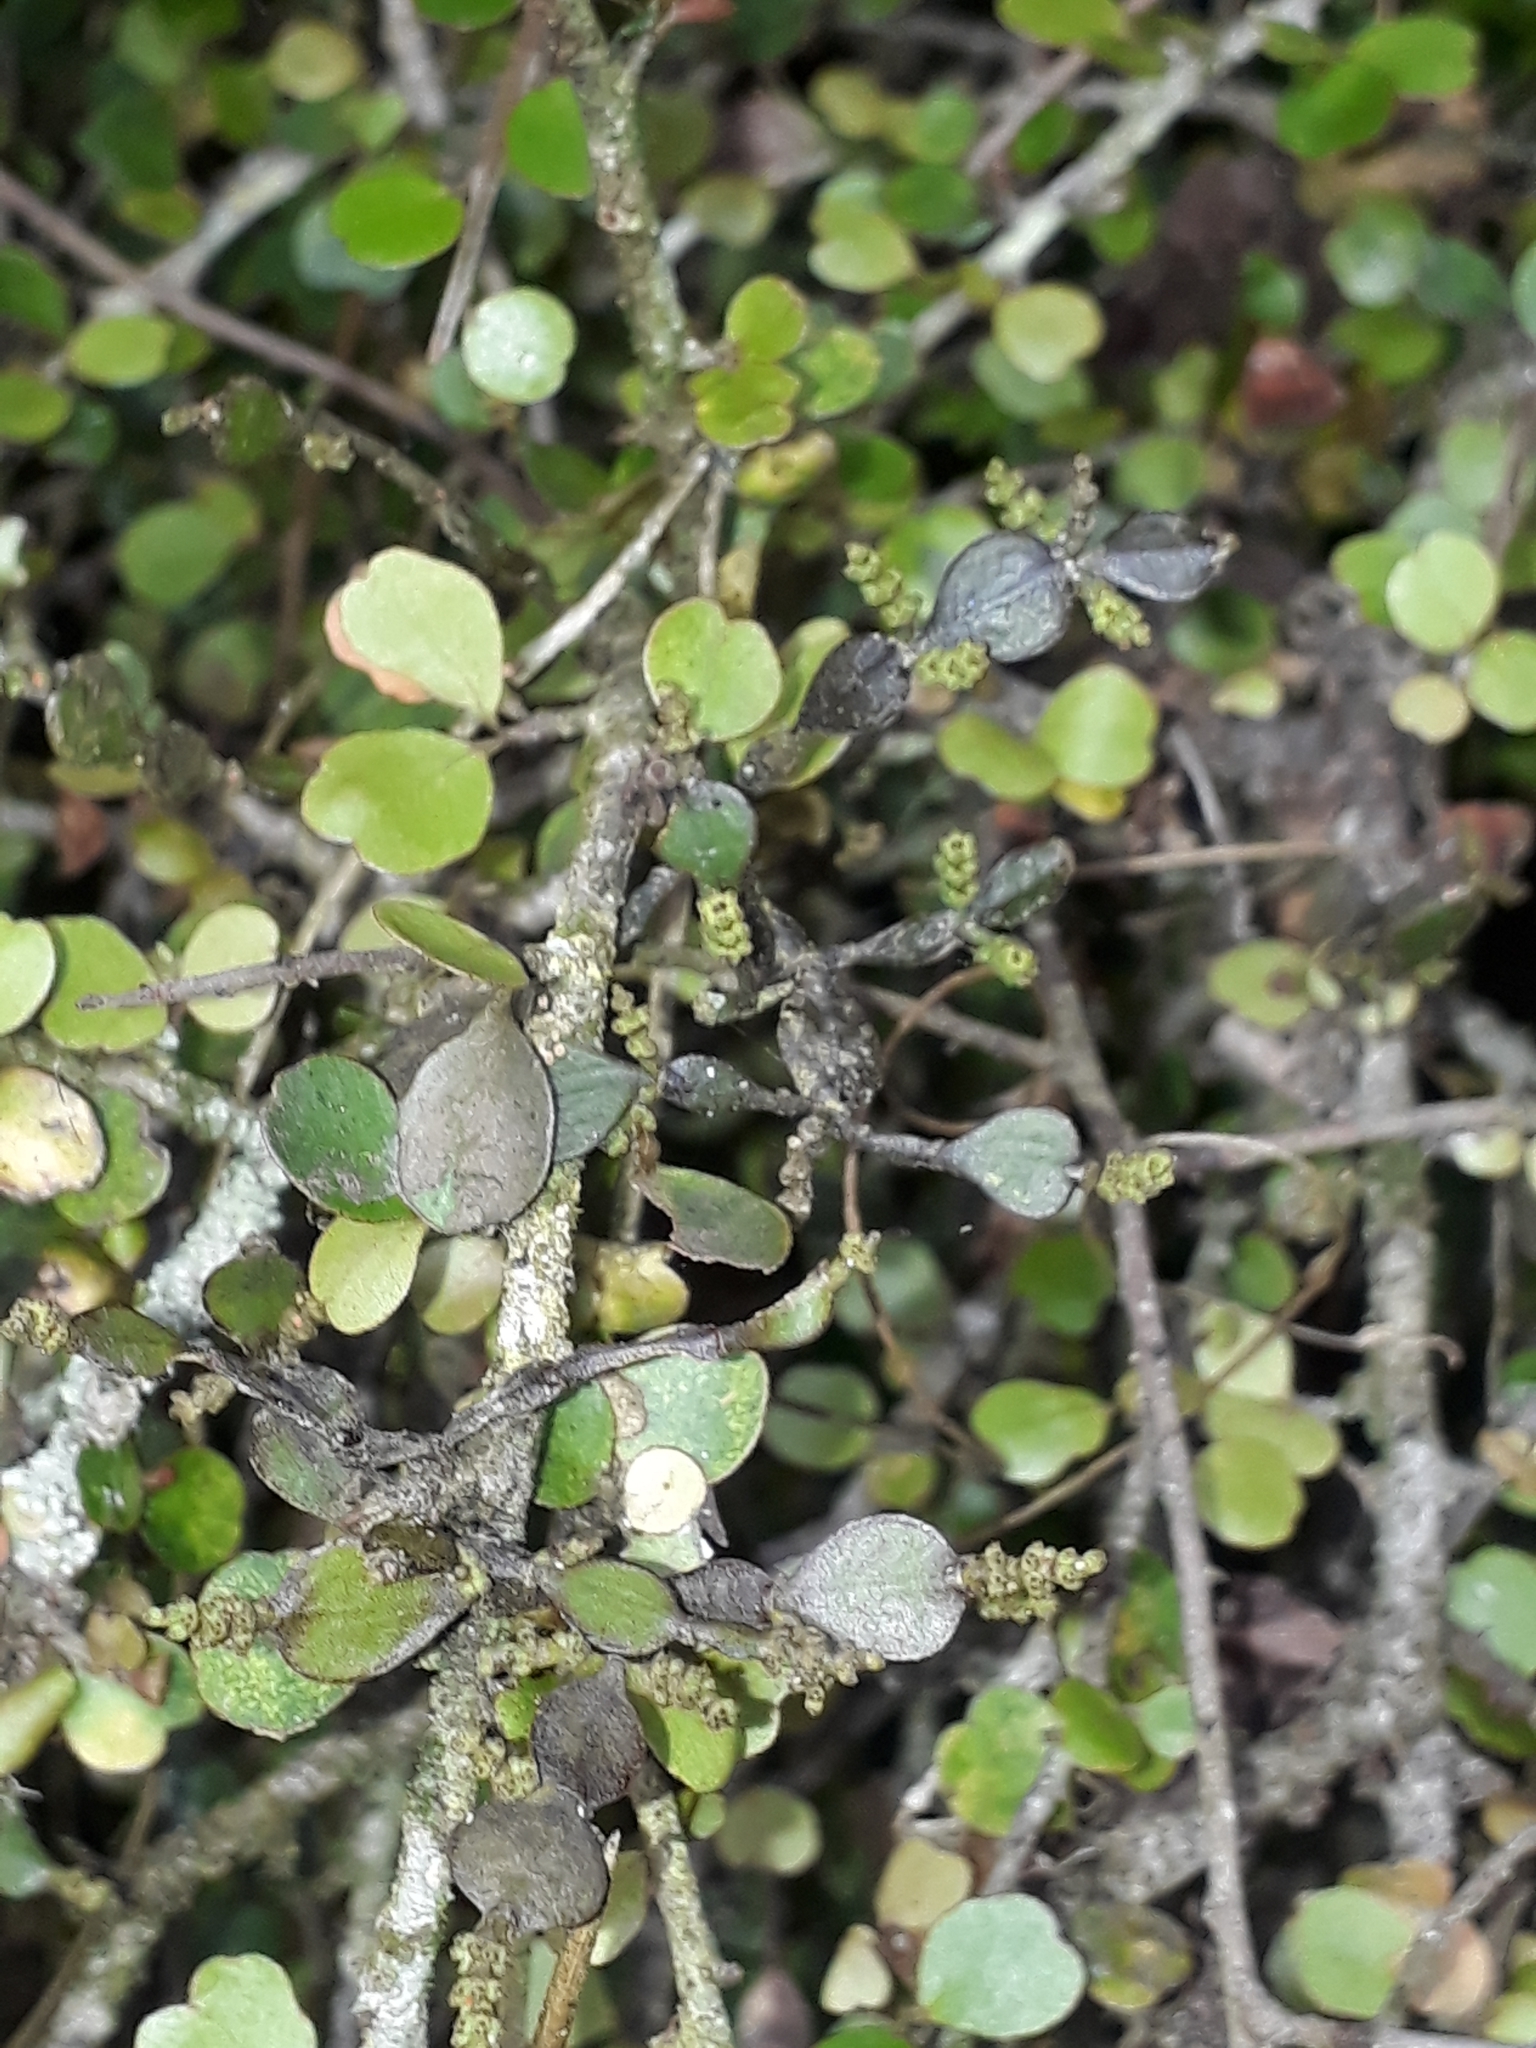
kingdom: Plantae
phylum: Tracheophyta
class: Magnoliopsida
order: Santalales
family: Viscaceae
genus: Korthalsella
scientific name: Korthalsella lindsayi
